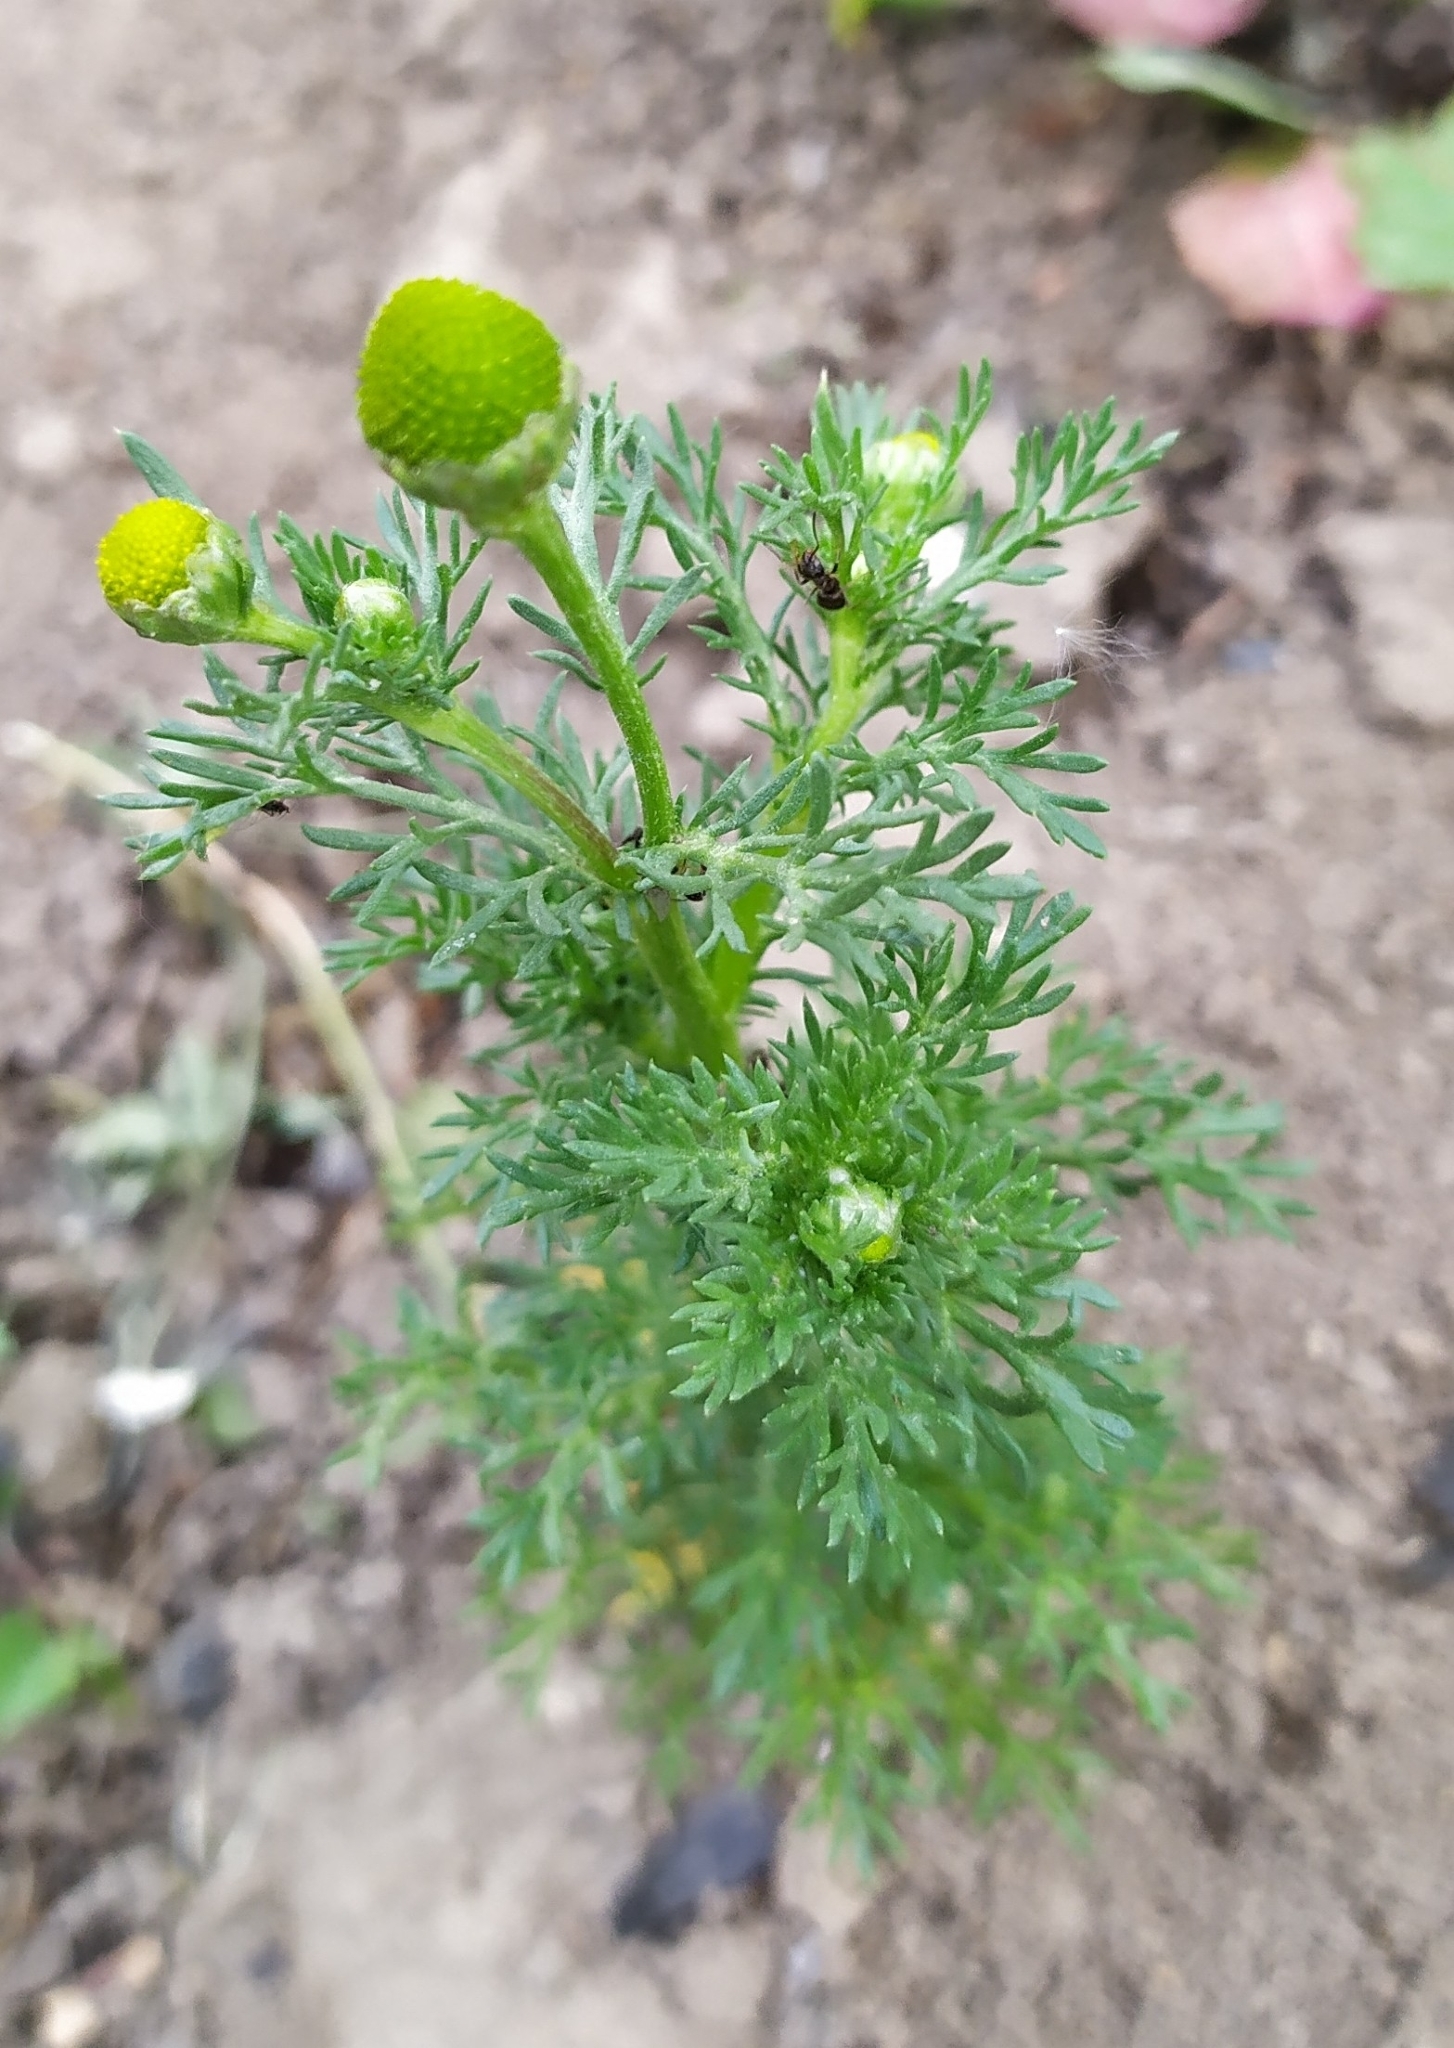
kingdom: Plantae
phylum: Tracheophyta
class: Magnoliopsida
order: Asterales
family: Asteraceae
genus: Matricaria
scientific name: Matricaria discoidea
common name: Disc mayweed
